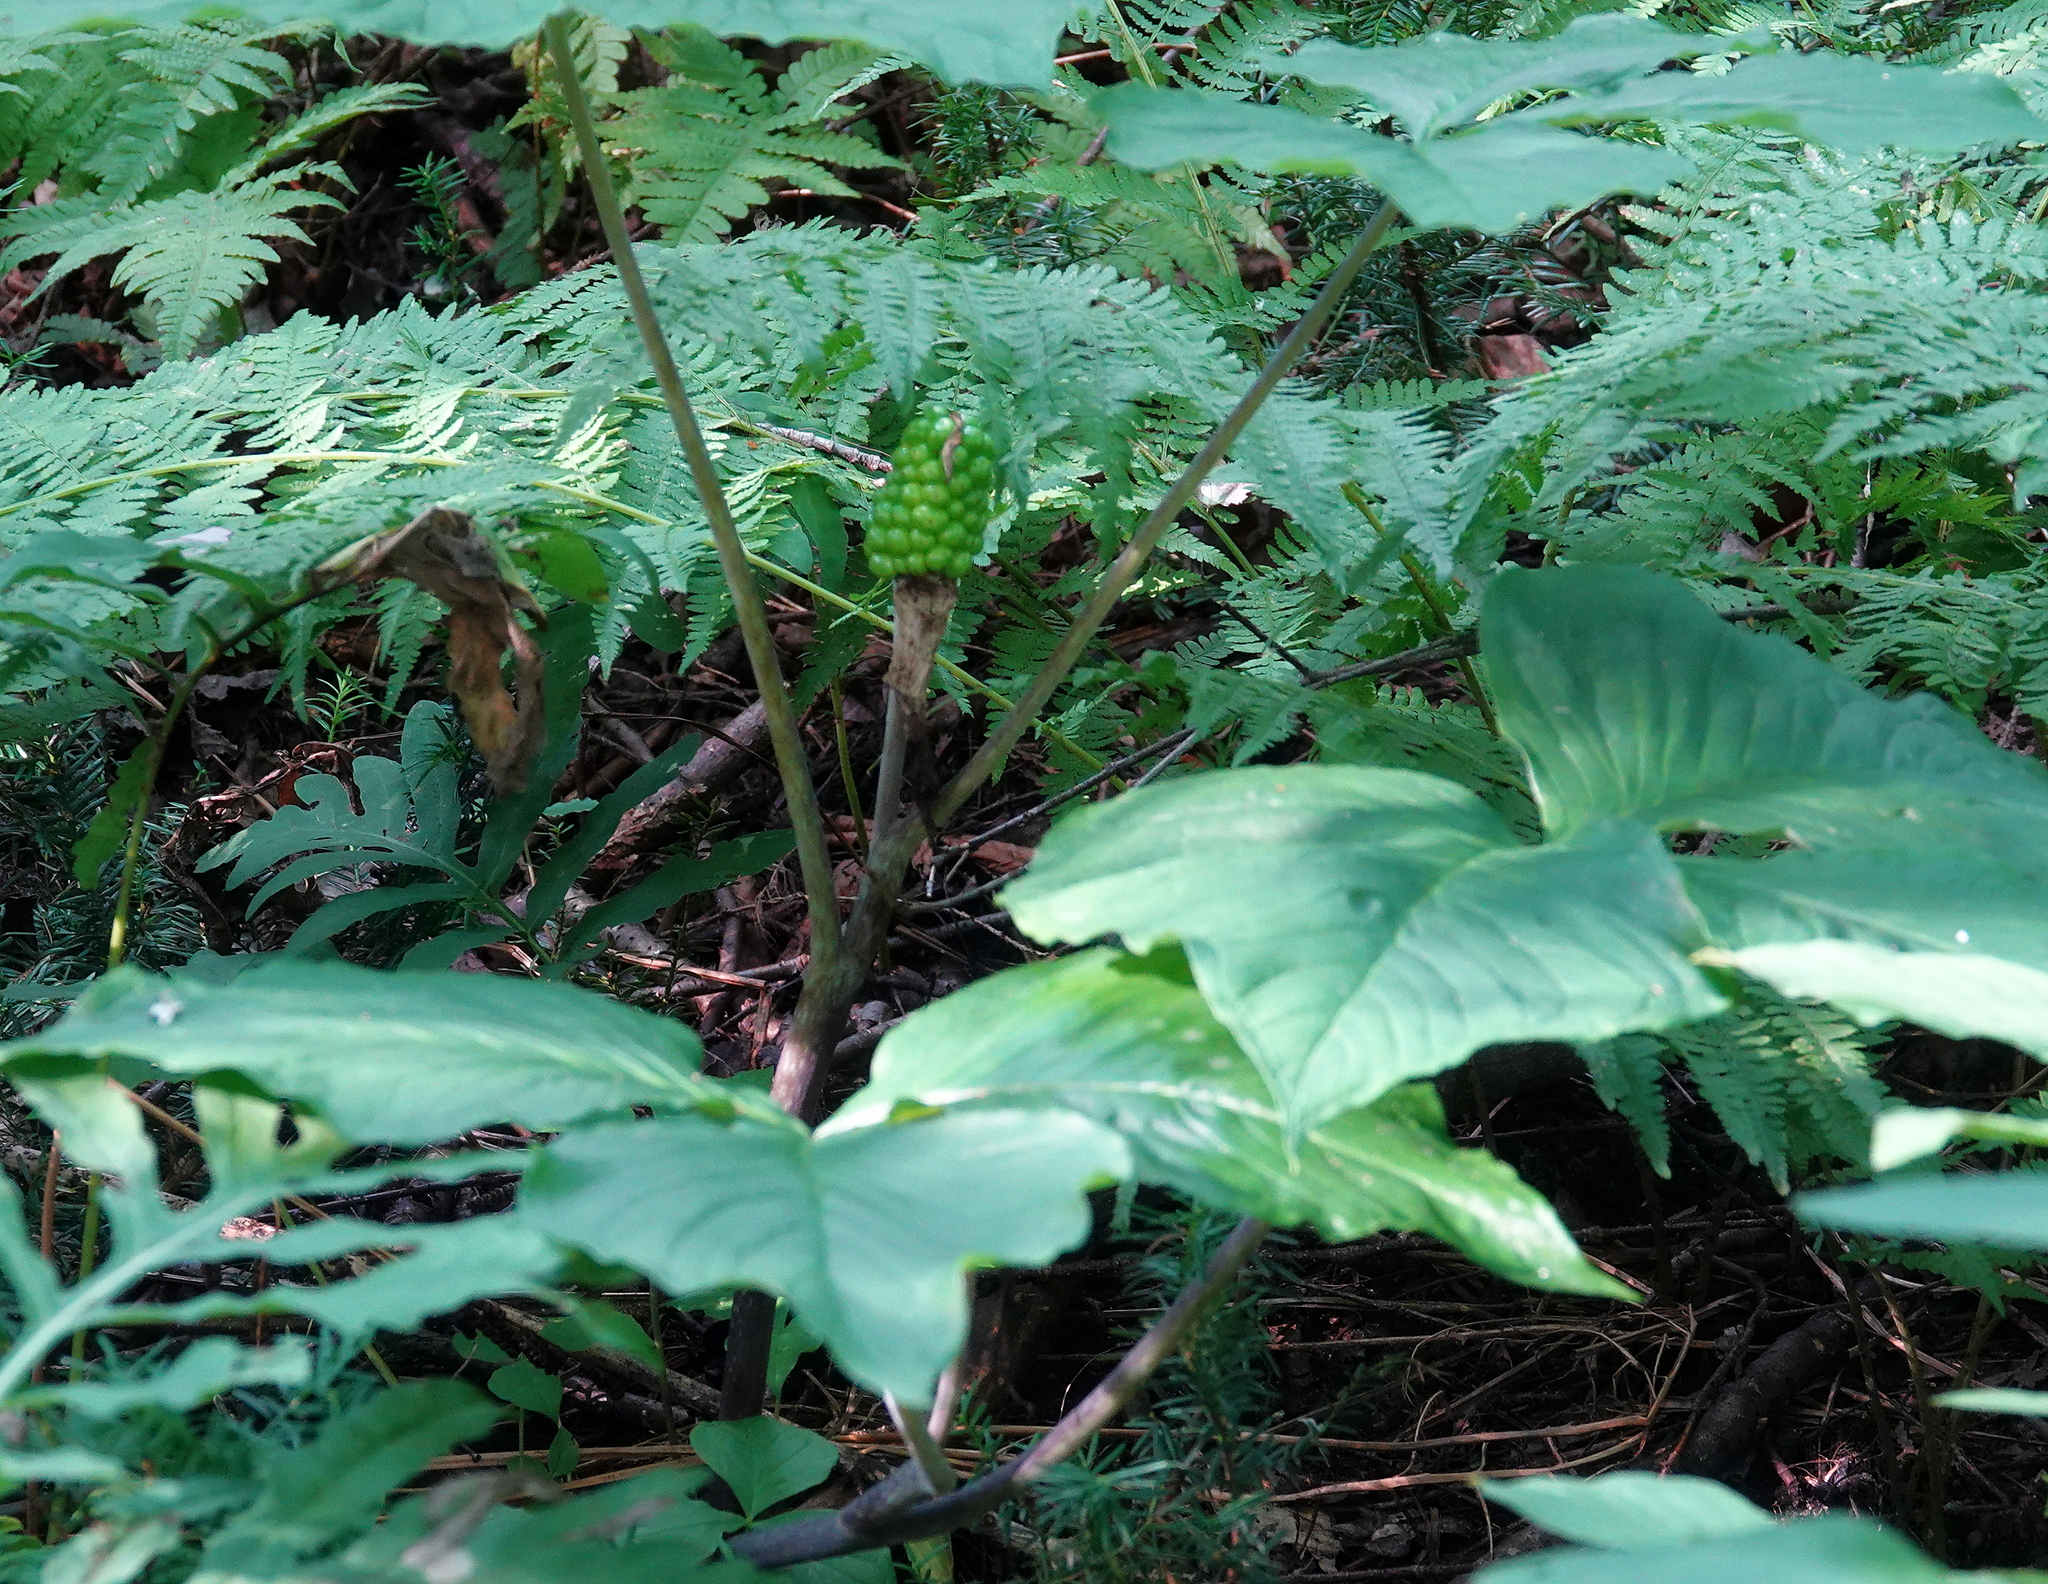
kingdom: Plantae
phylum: Tracheophyta
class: Liliopsida
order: Alismatales
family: Araceae
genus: Arisaema
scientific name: Arisaema triphyllum
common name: Jack-in-the-pulpit
